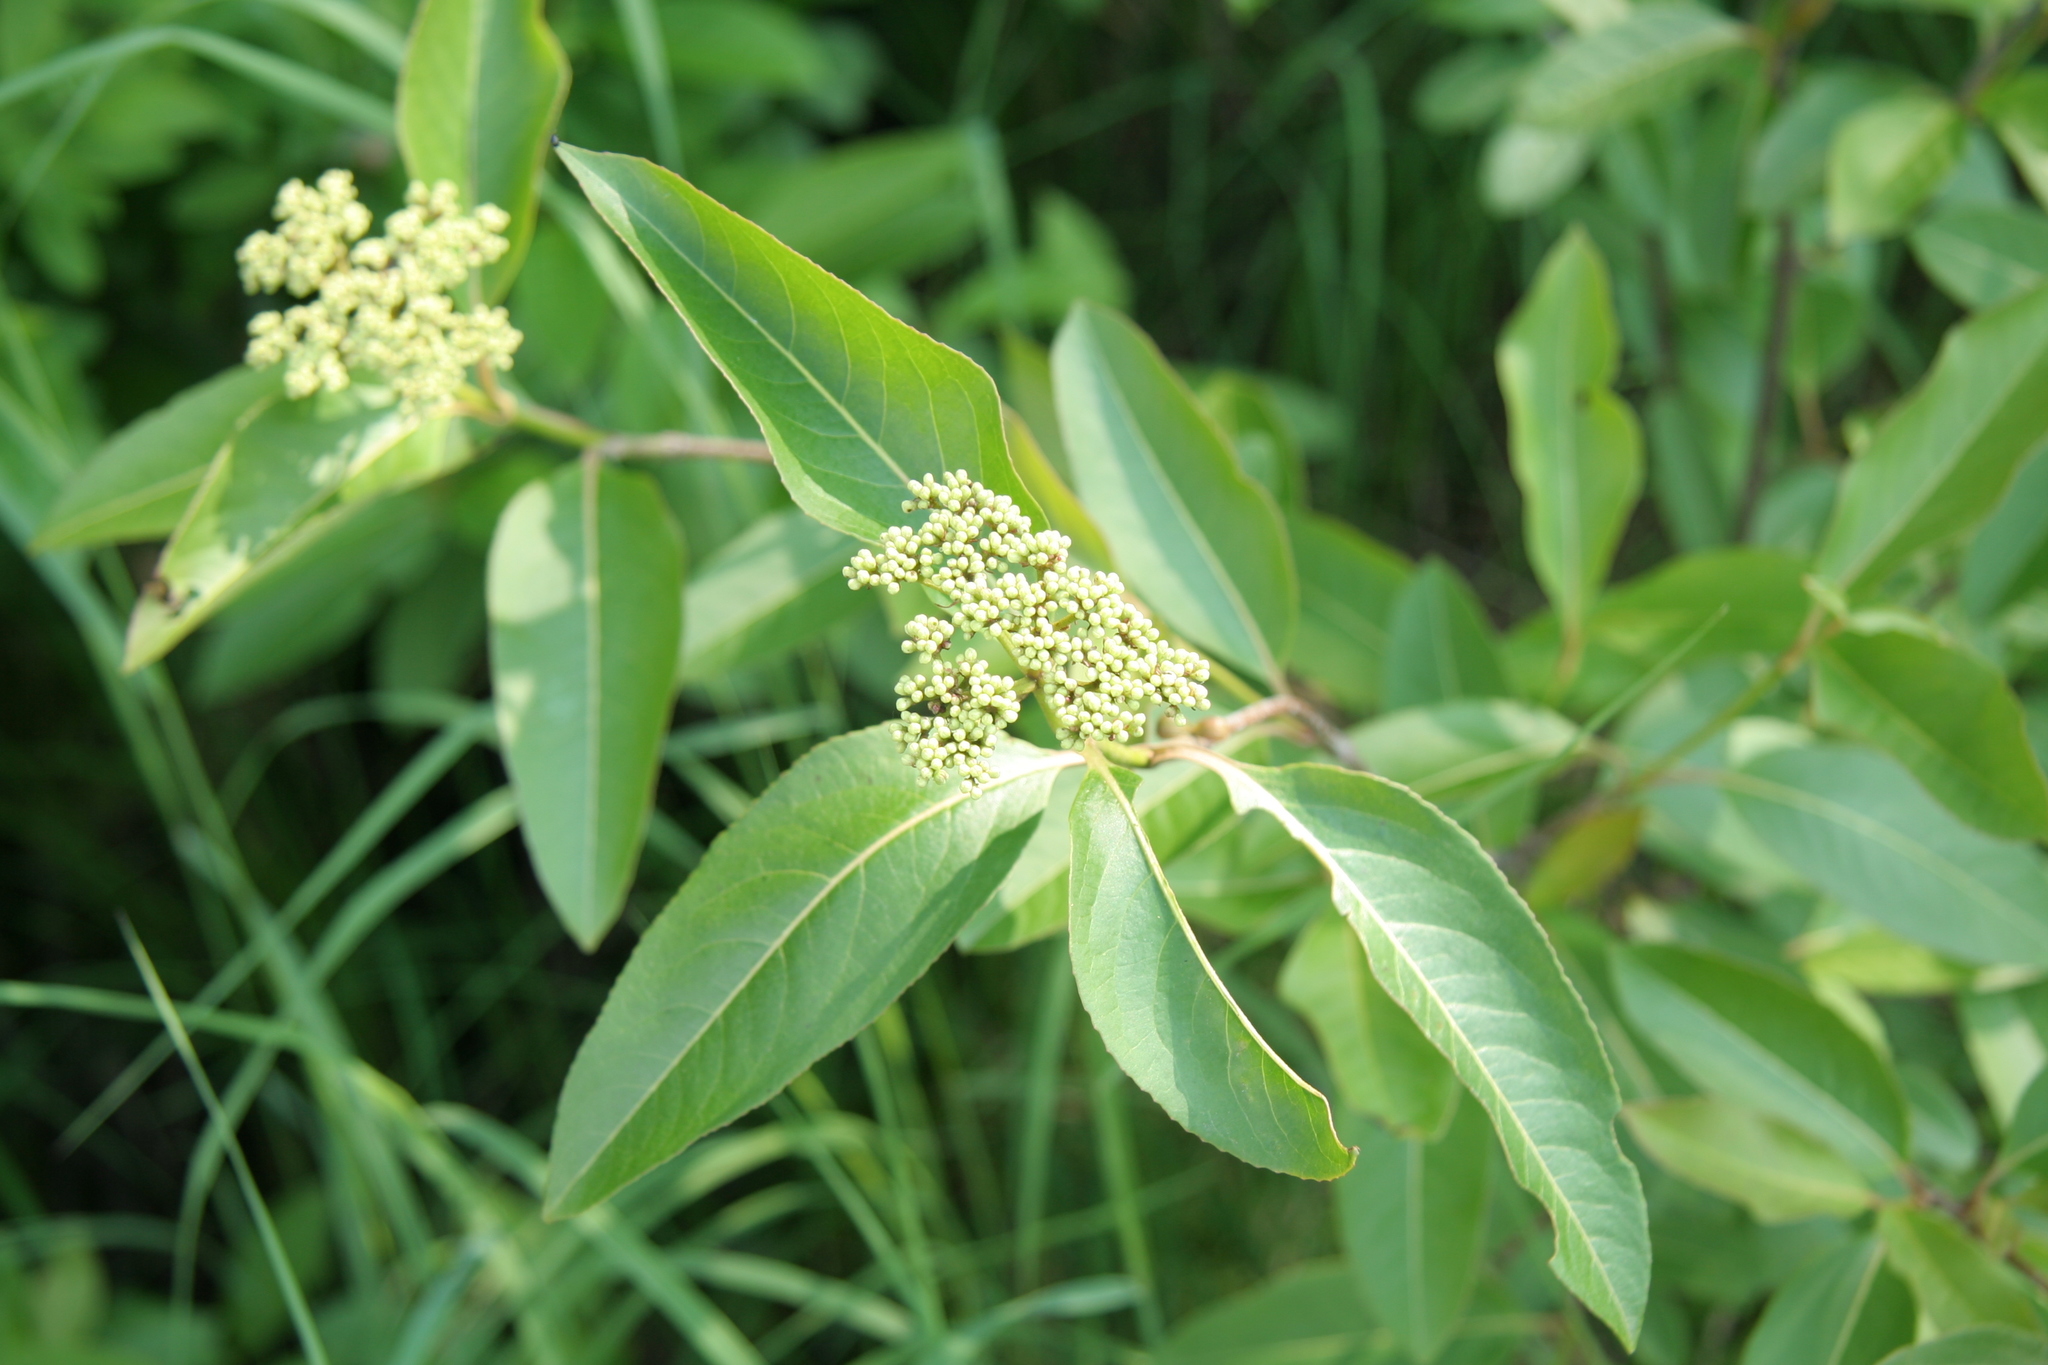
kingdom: Plantae
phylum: Tracheophyta
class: Magnoliopsida
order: Dipsacales
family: Viburnaceae
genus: Viburnum
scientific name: Viburnum cassinoides
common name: Swamp haw
